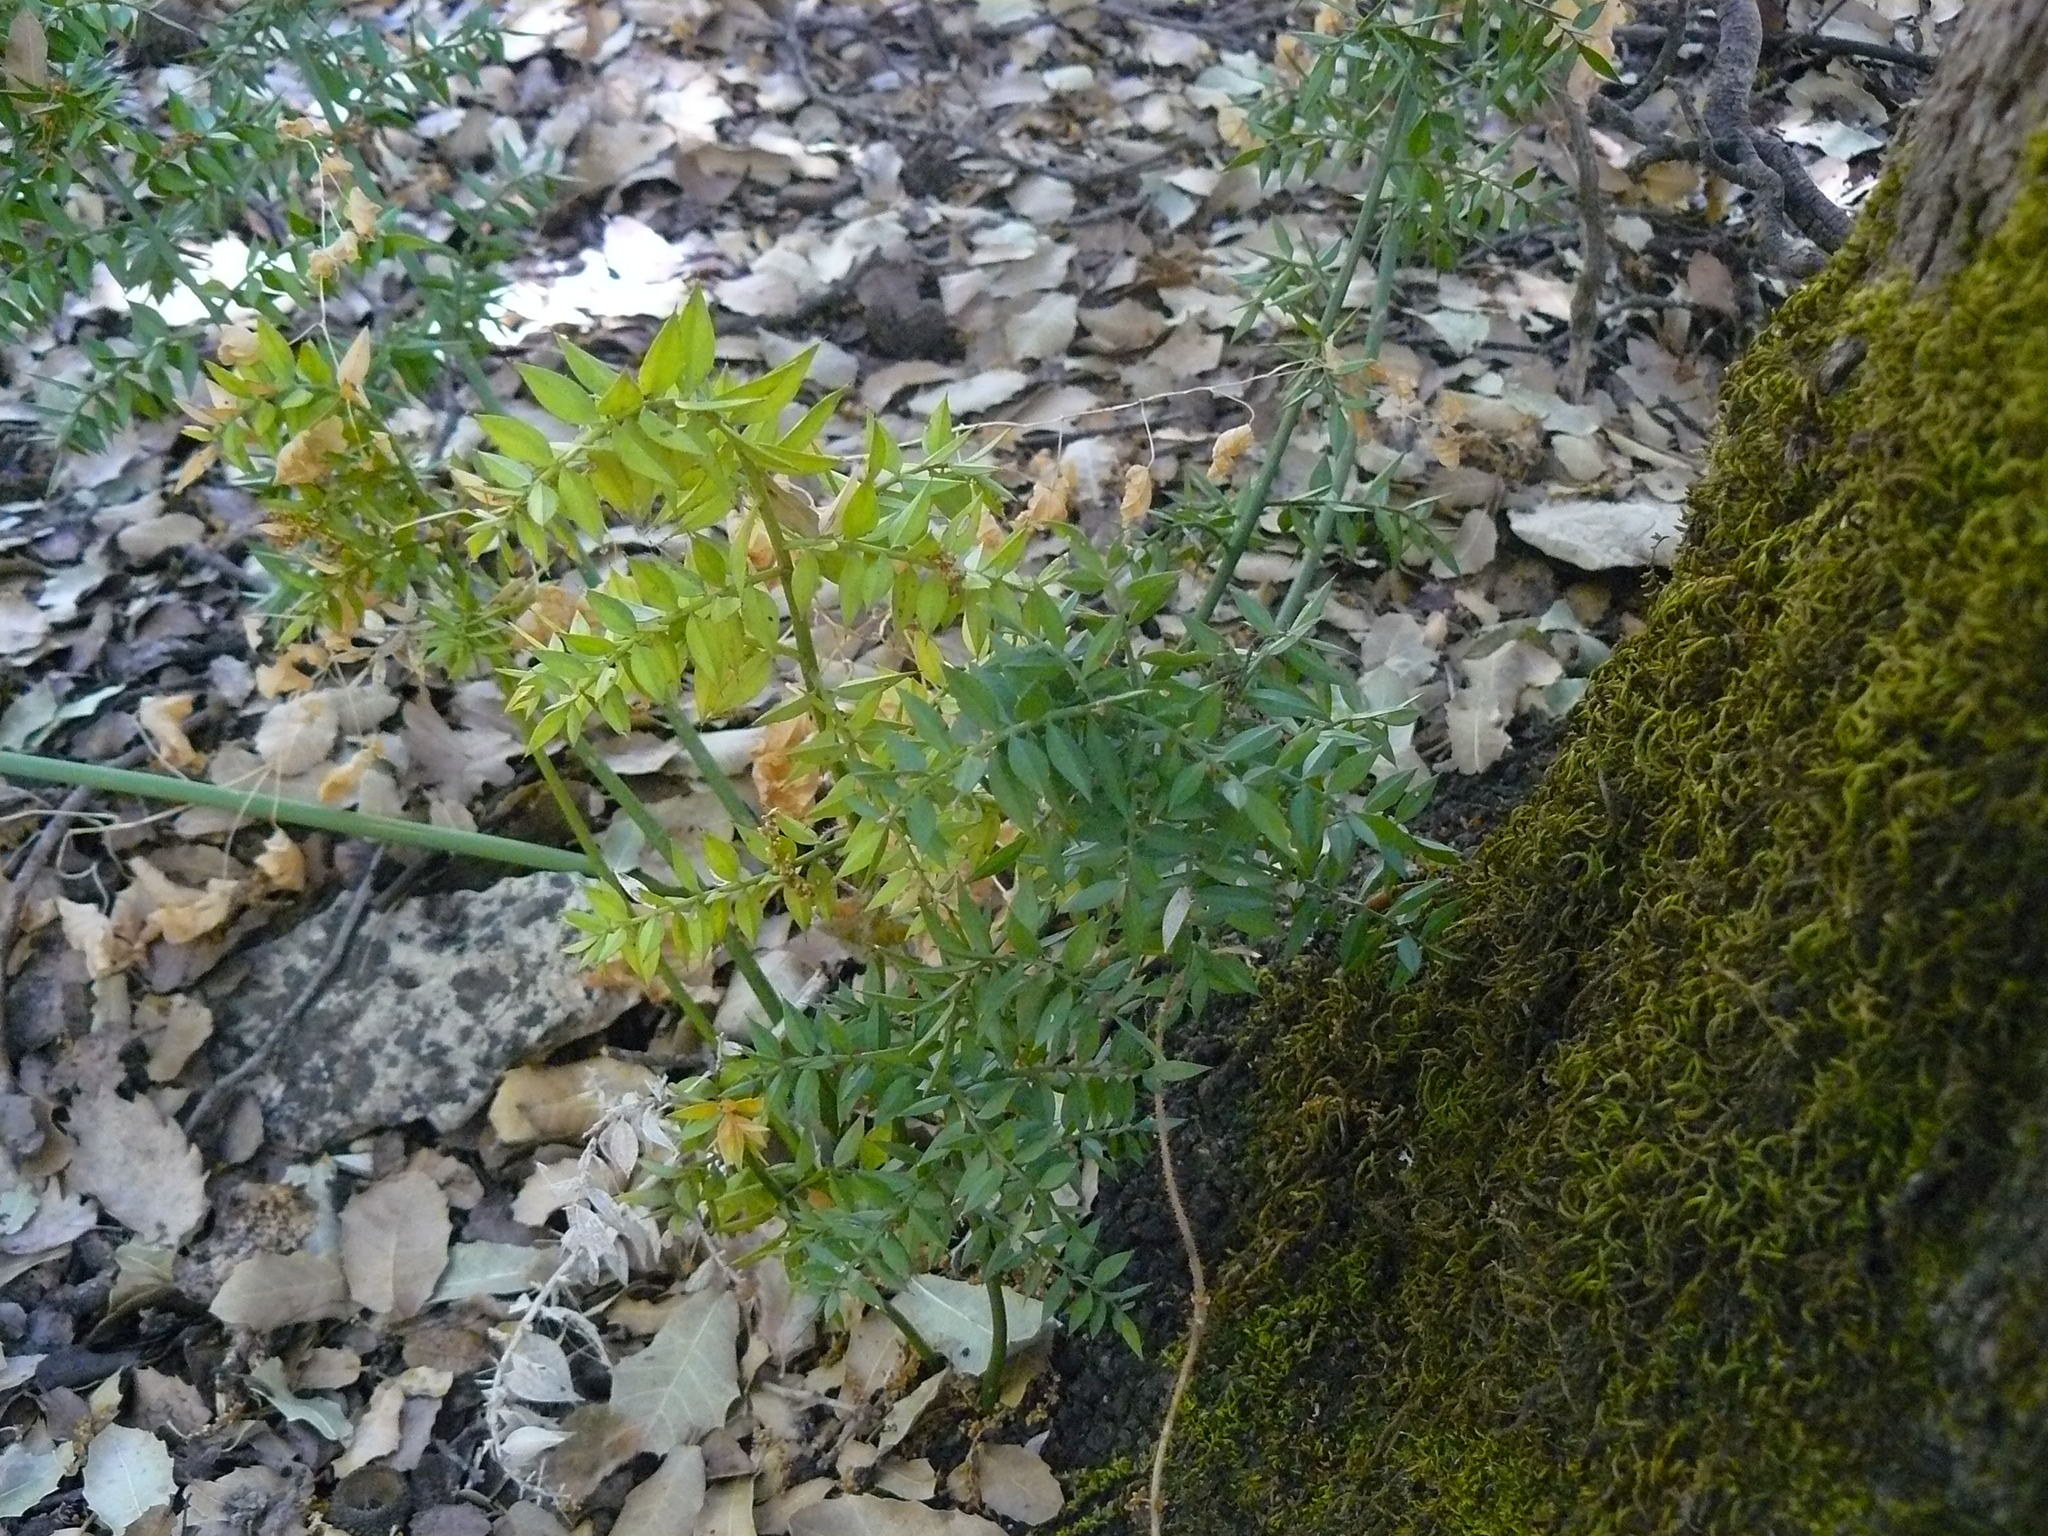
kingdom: Plantae
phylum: Tracheophyta
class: Liliopsida
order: Asparagales
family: Asparagaceae
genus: Ruscus
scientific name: Ruscus aculeatus
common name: Butcher's-broom
